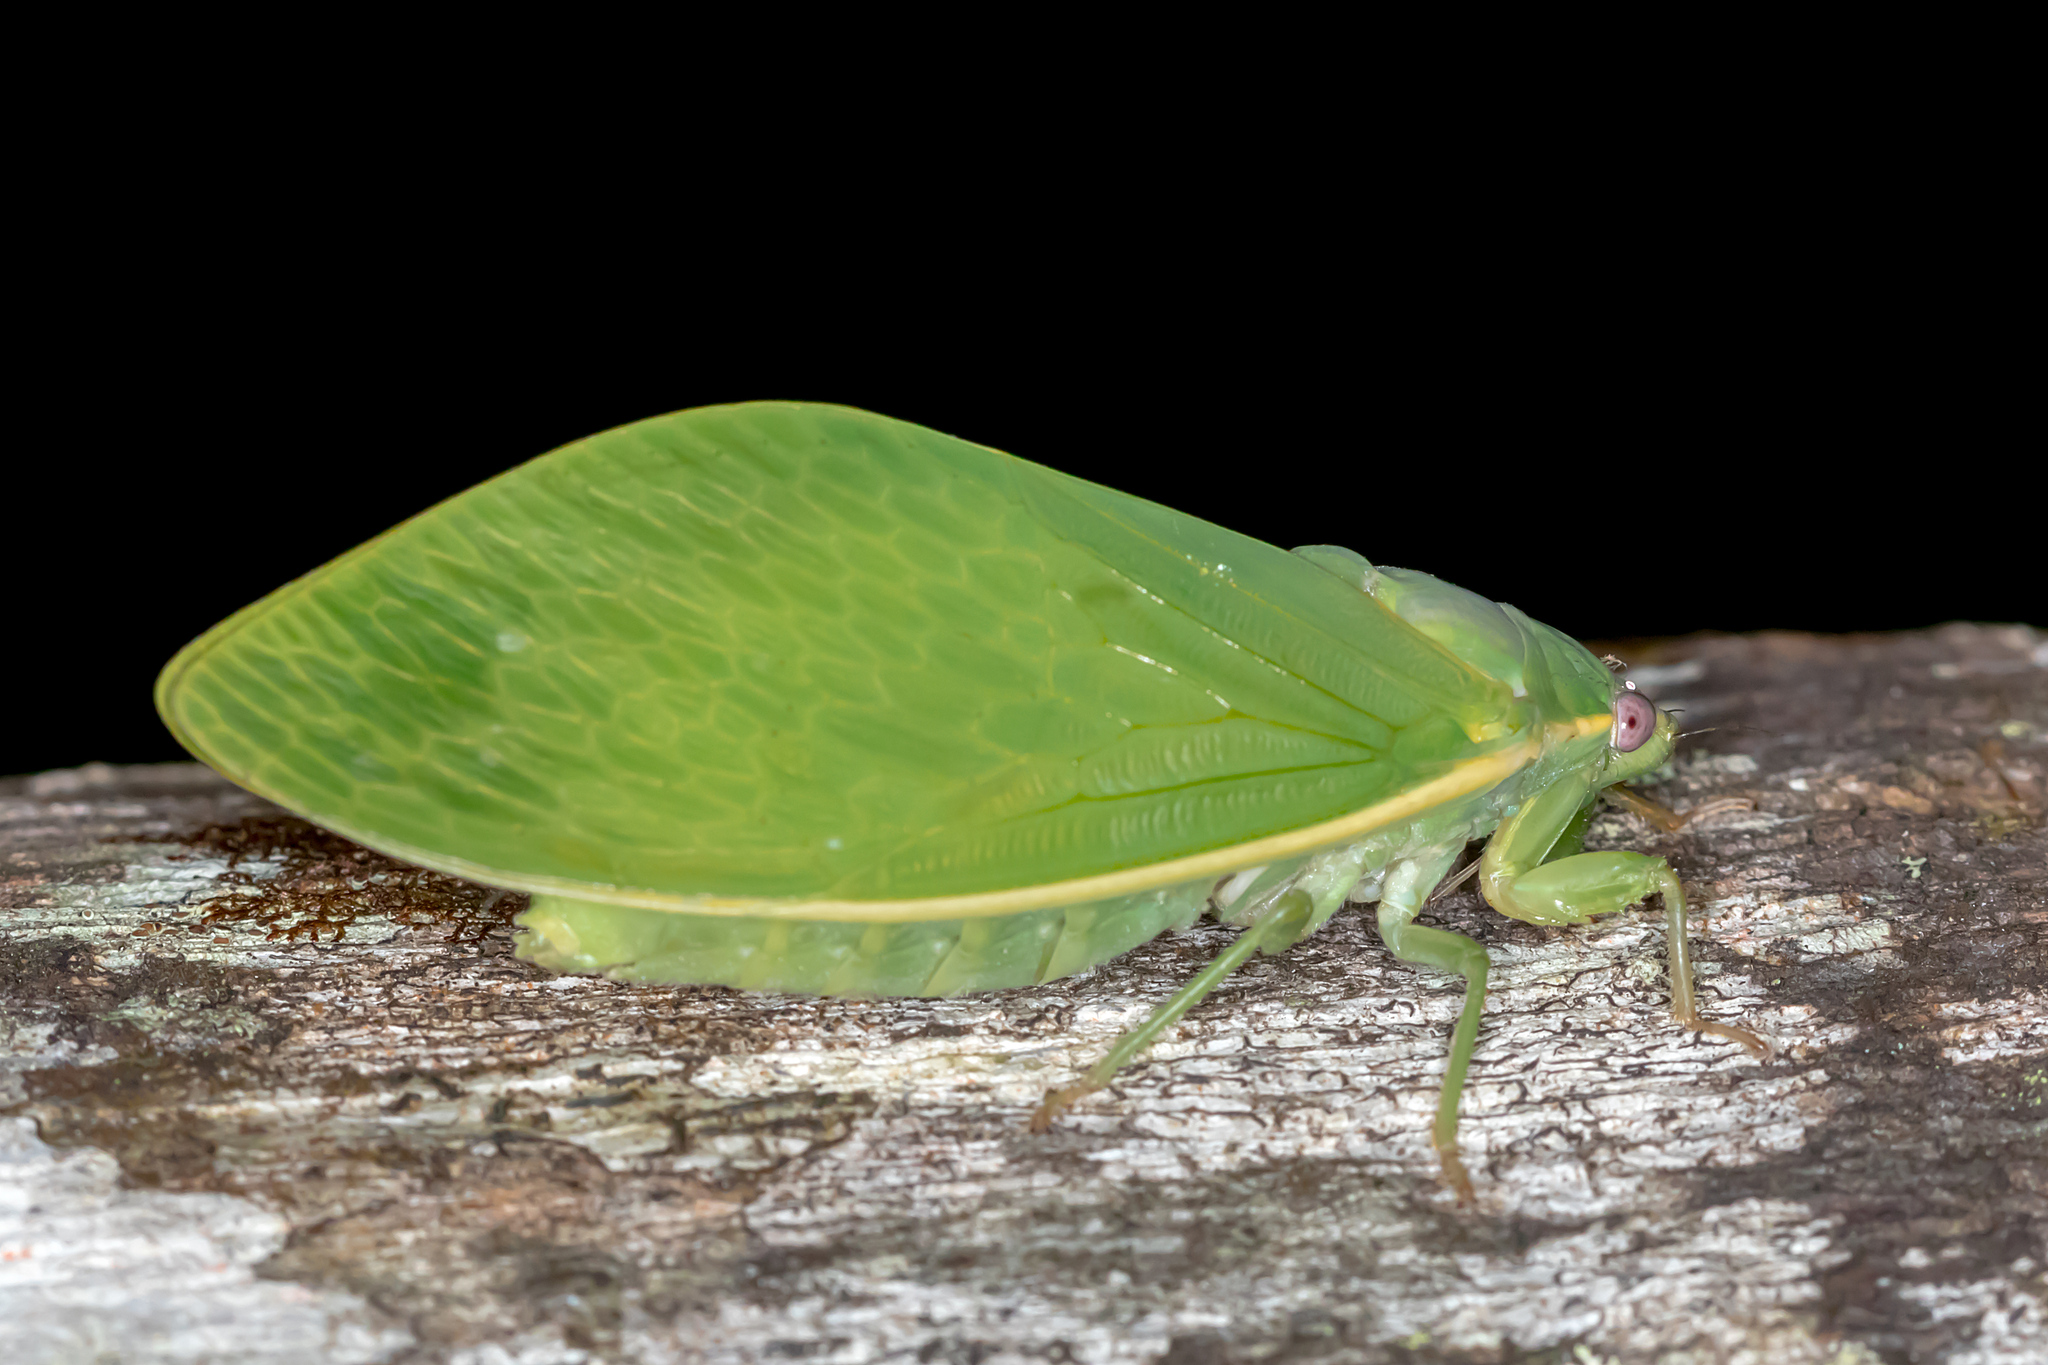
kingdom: Animalia
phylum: Arthropoda
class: Insecta
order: Hemiptera
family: Cicadidae
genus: Cystosoma
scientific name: Cystosoma saundersii
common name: Bladder cicada
